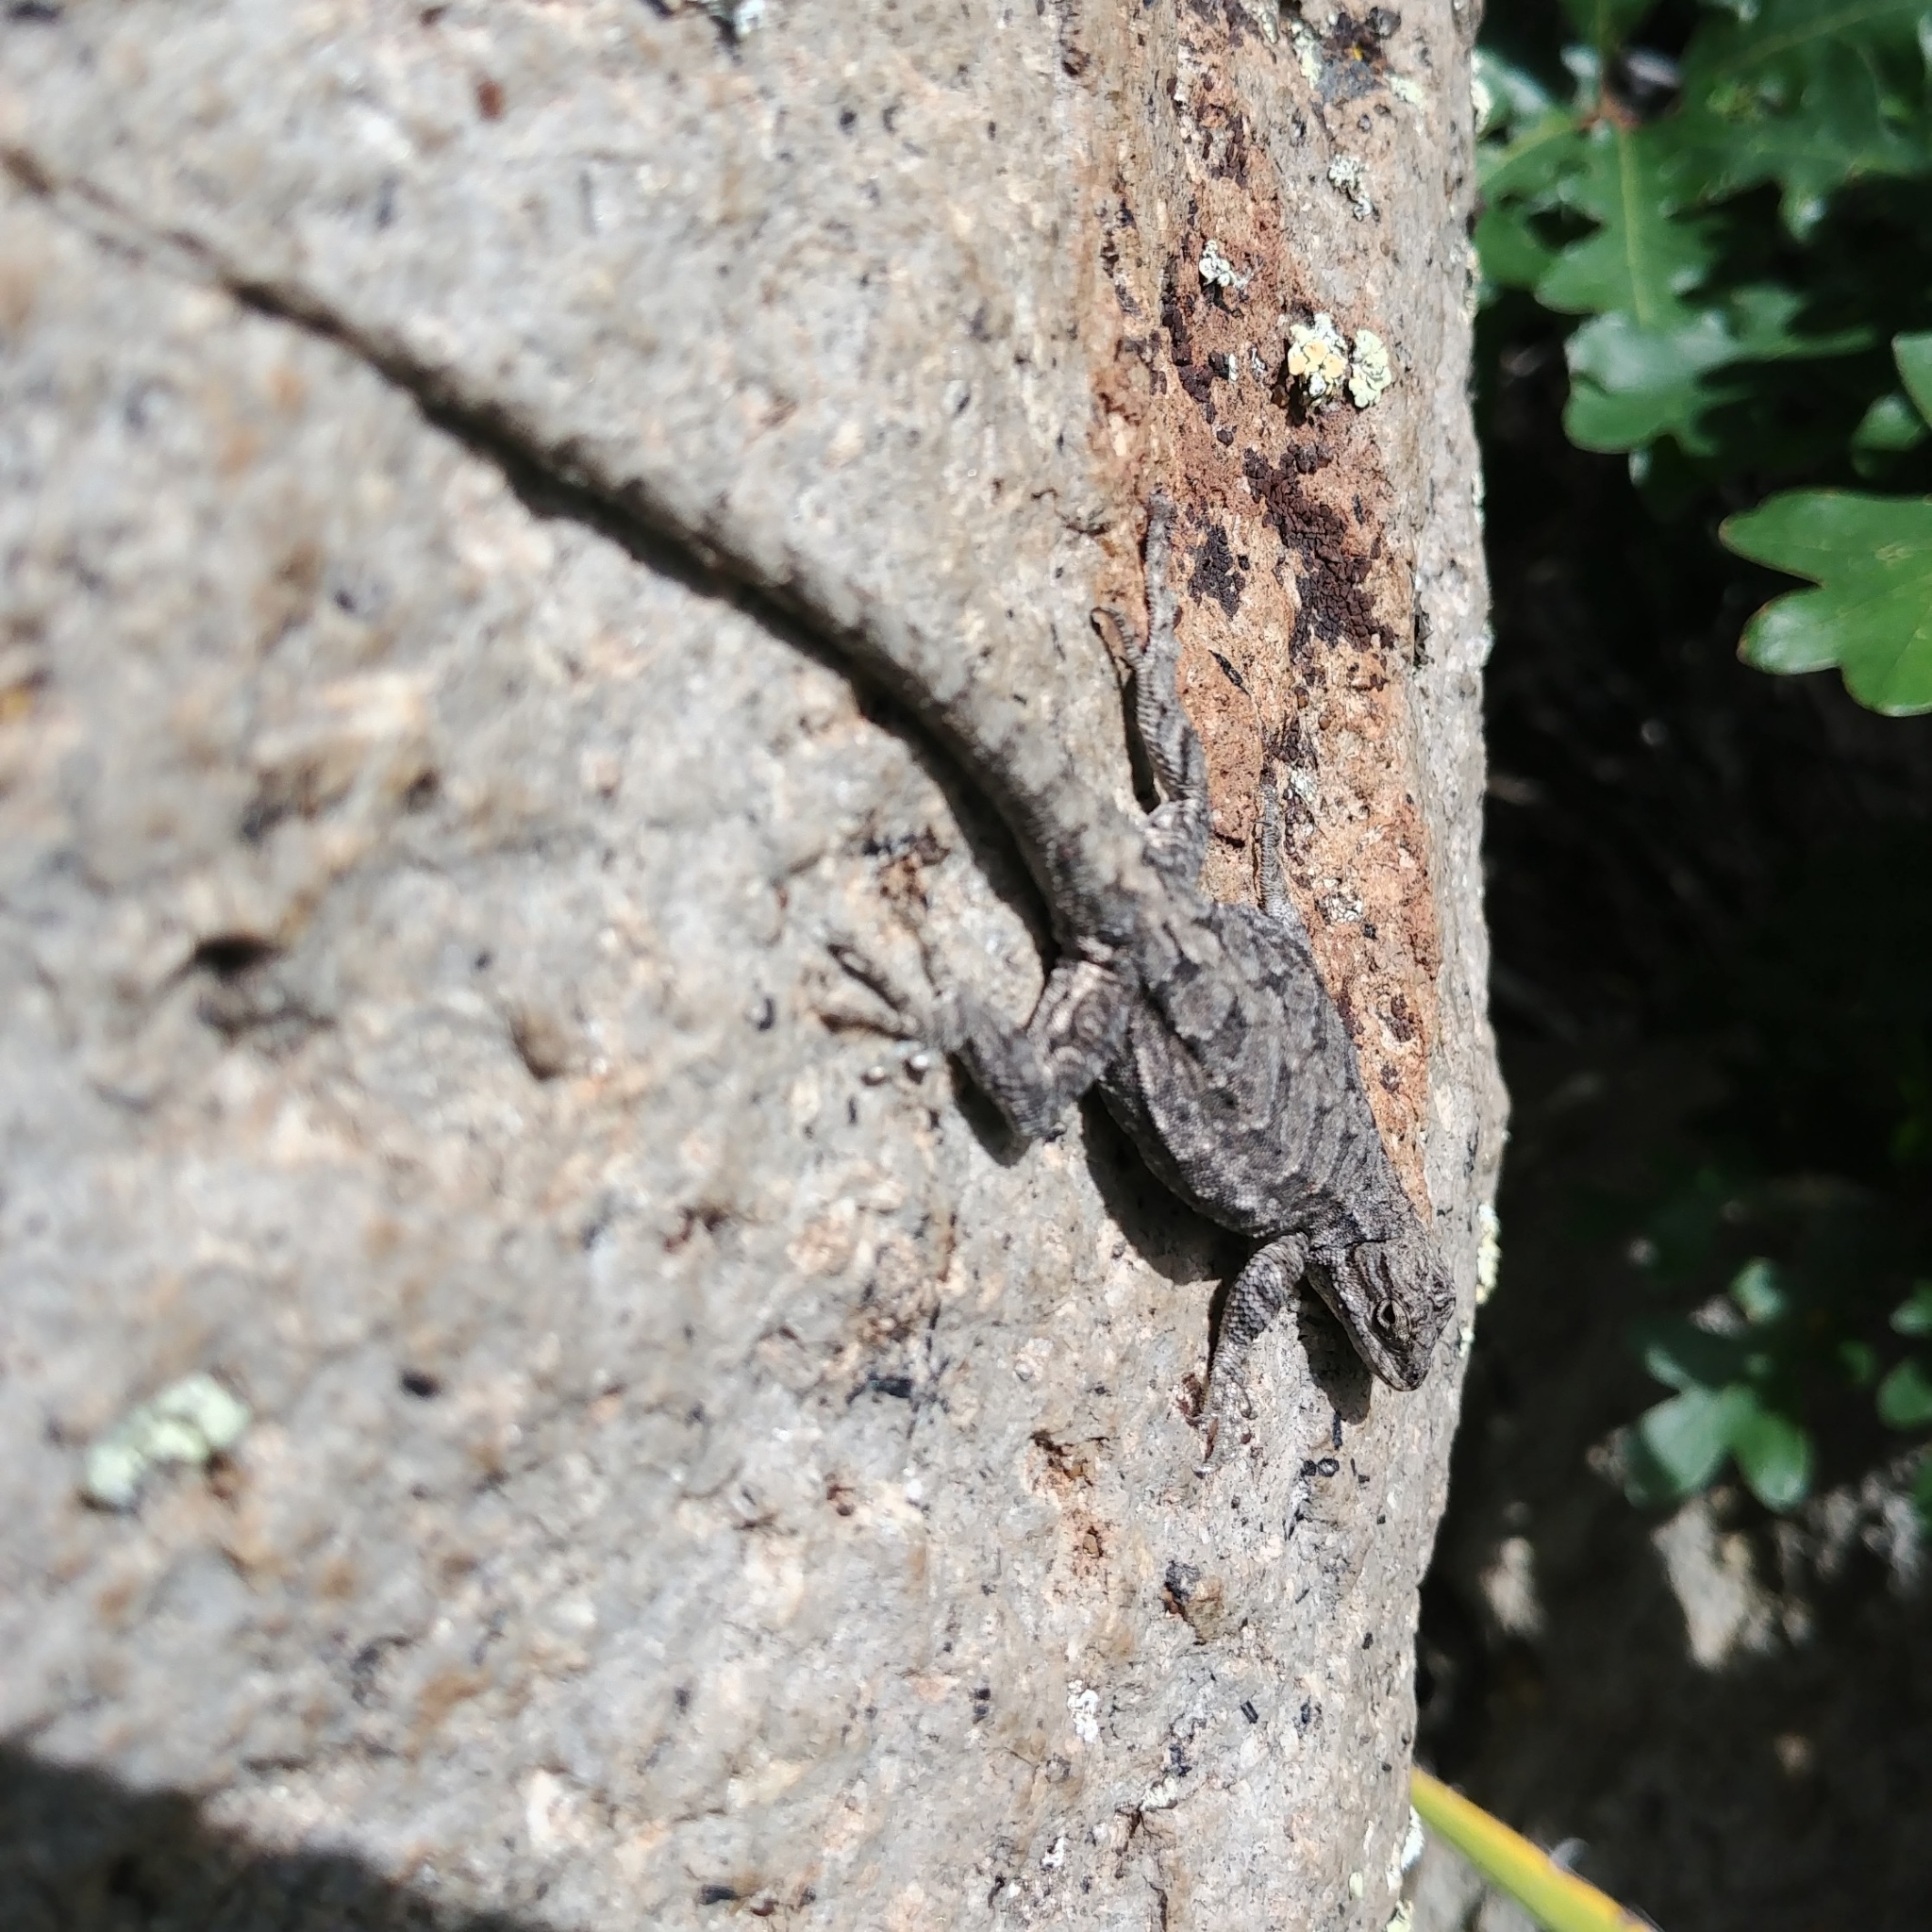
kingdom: Animalia
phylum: Chordata
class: Squamata
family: Phrynosomatidae
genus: Urosaurus
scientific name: Urosaurus ornatus
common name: Ornate tree lizard
